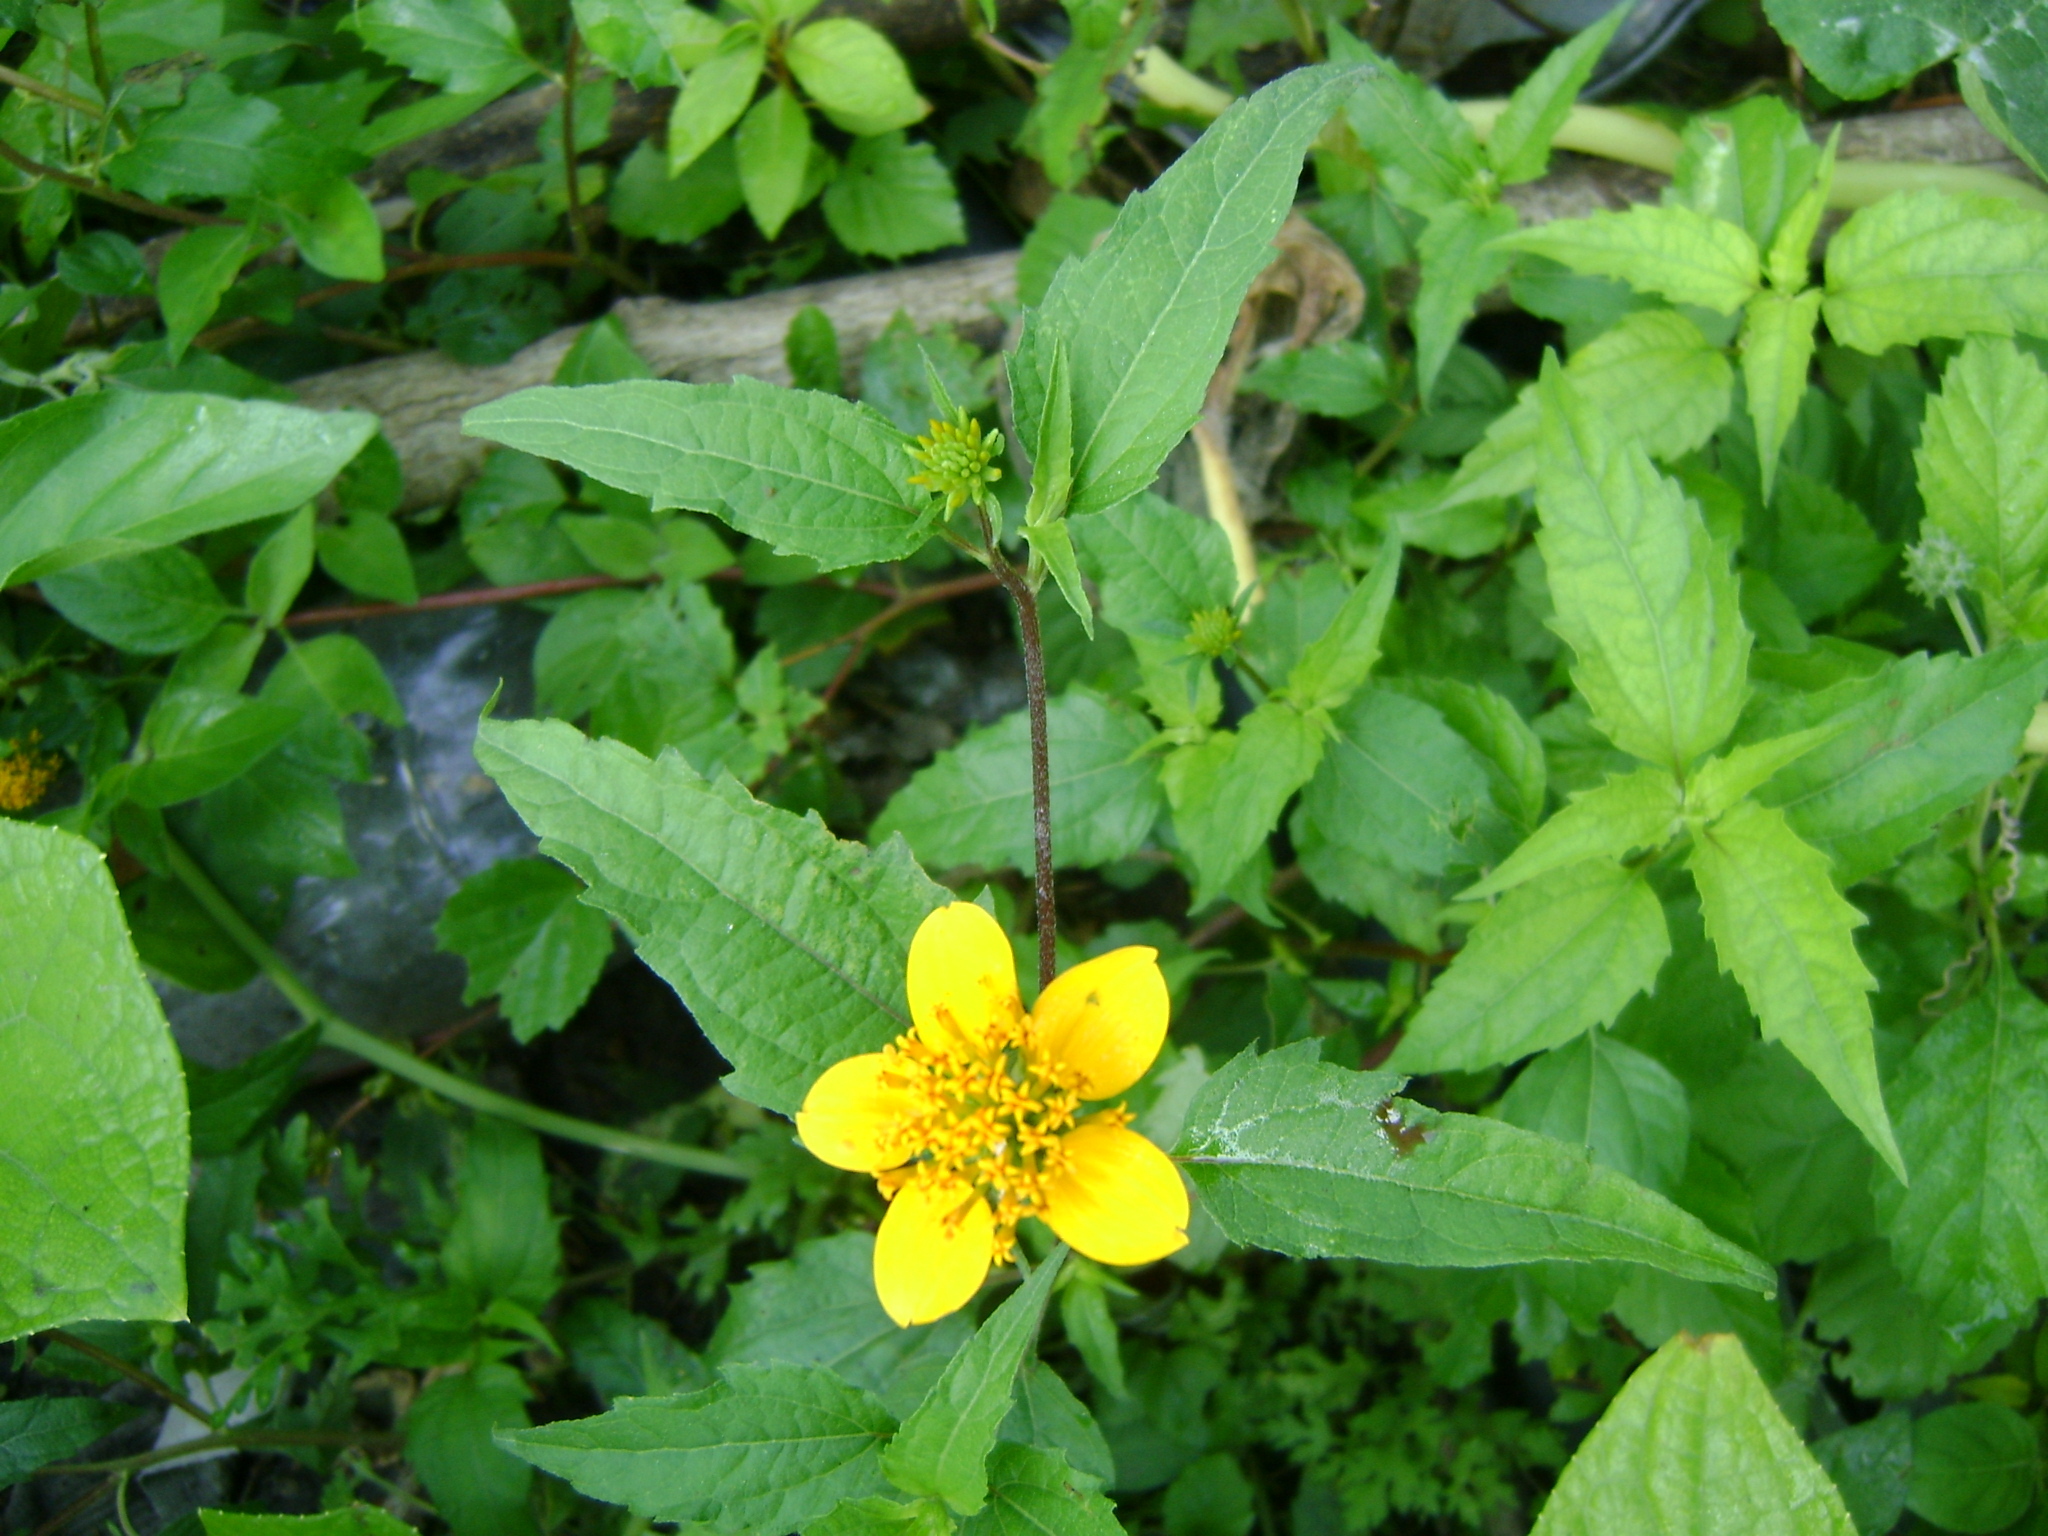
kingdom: Plantae
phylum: Tracheophyta
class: Magnoliopsida
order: Asterales
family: Asteraceae
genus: Sclerocarpus
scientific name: Sclerocarpus uniserialis
